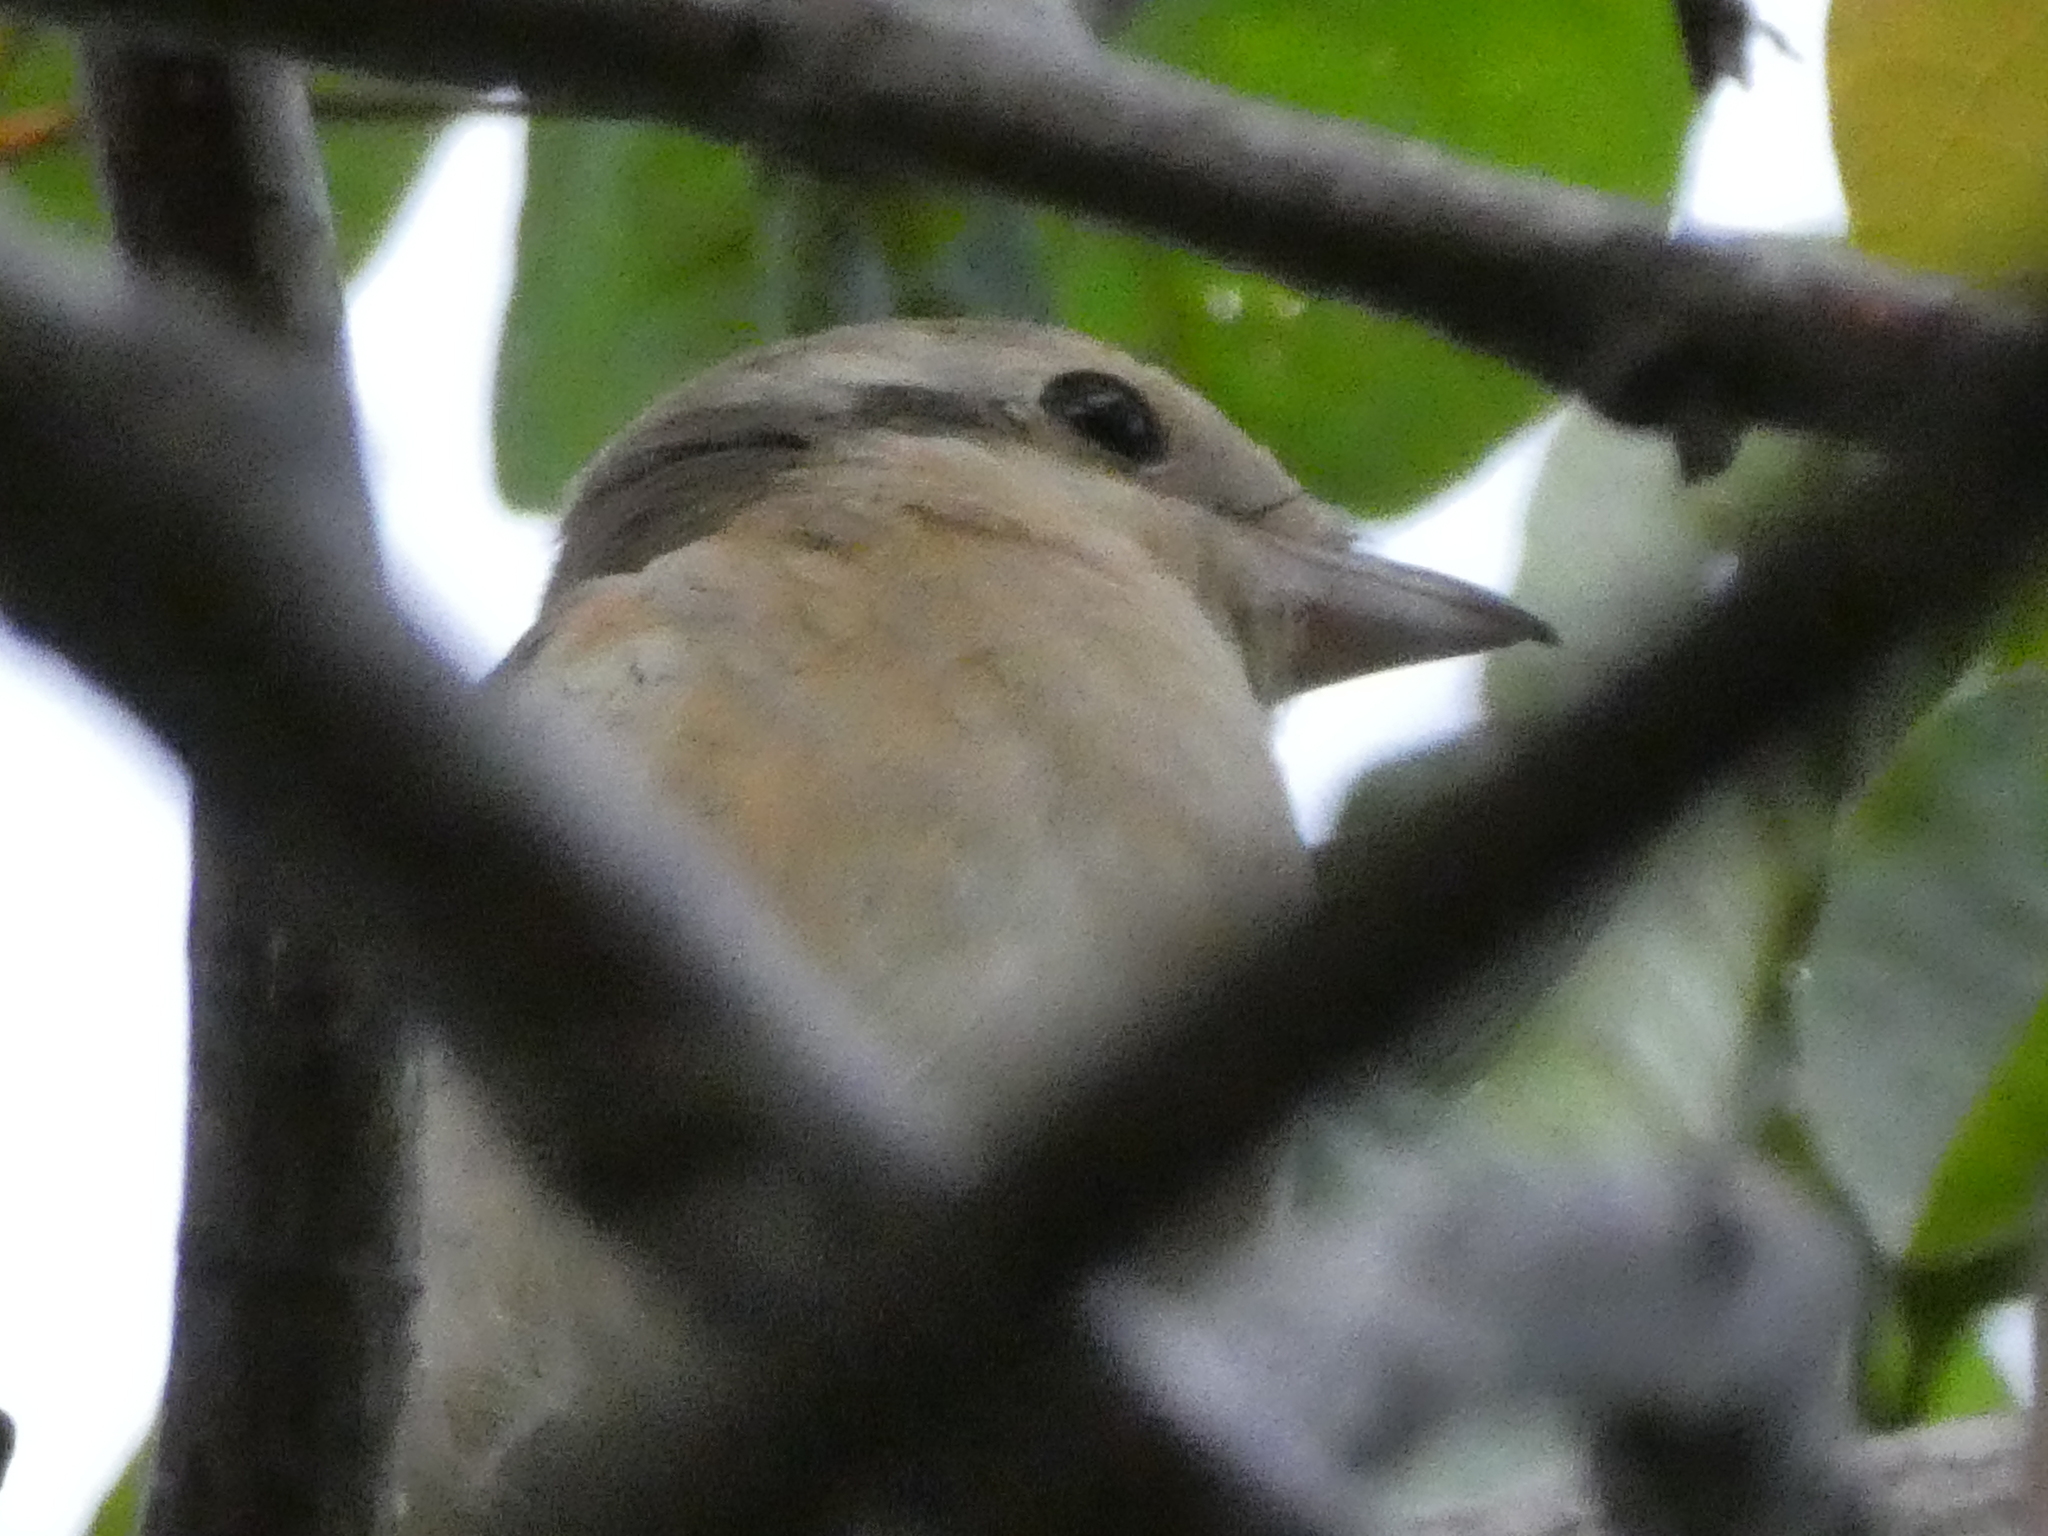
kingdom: Animalia
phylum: Chordata
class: Aves
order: Passeriformes
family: Laniidae
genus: Lanius
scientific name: Lanius cristatus
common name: Brown shrike
